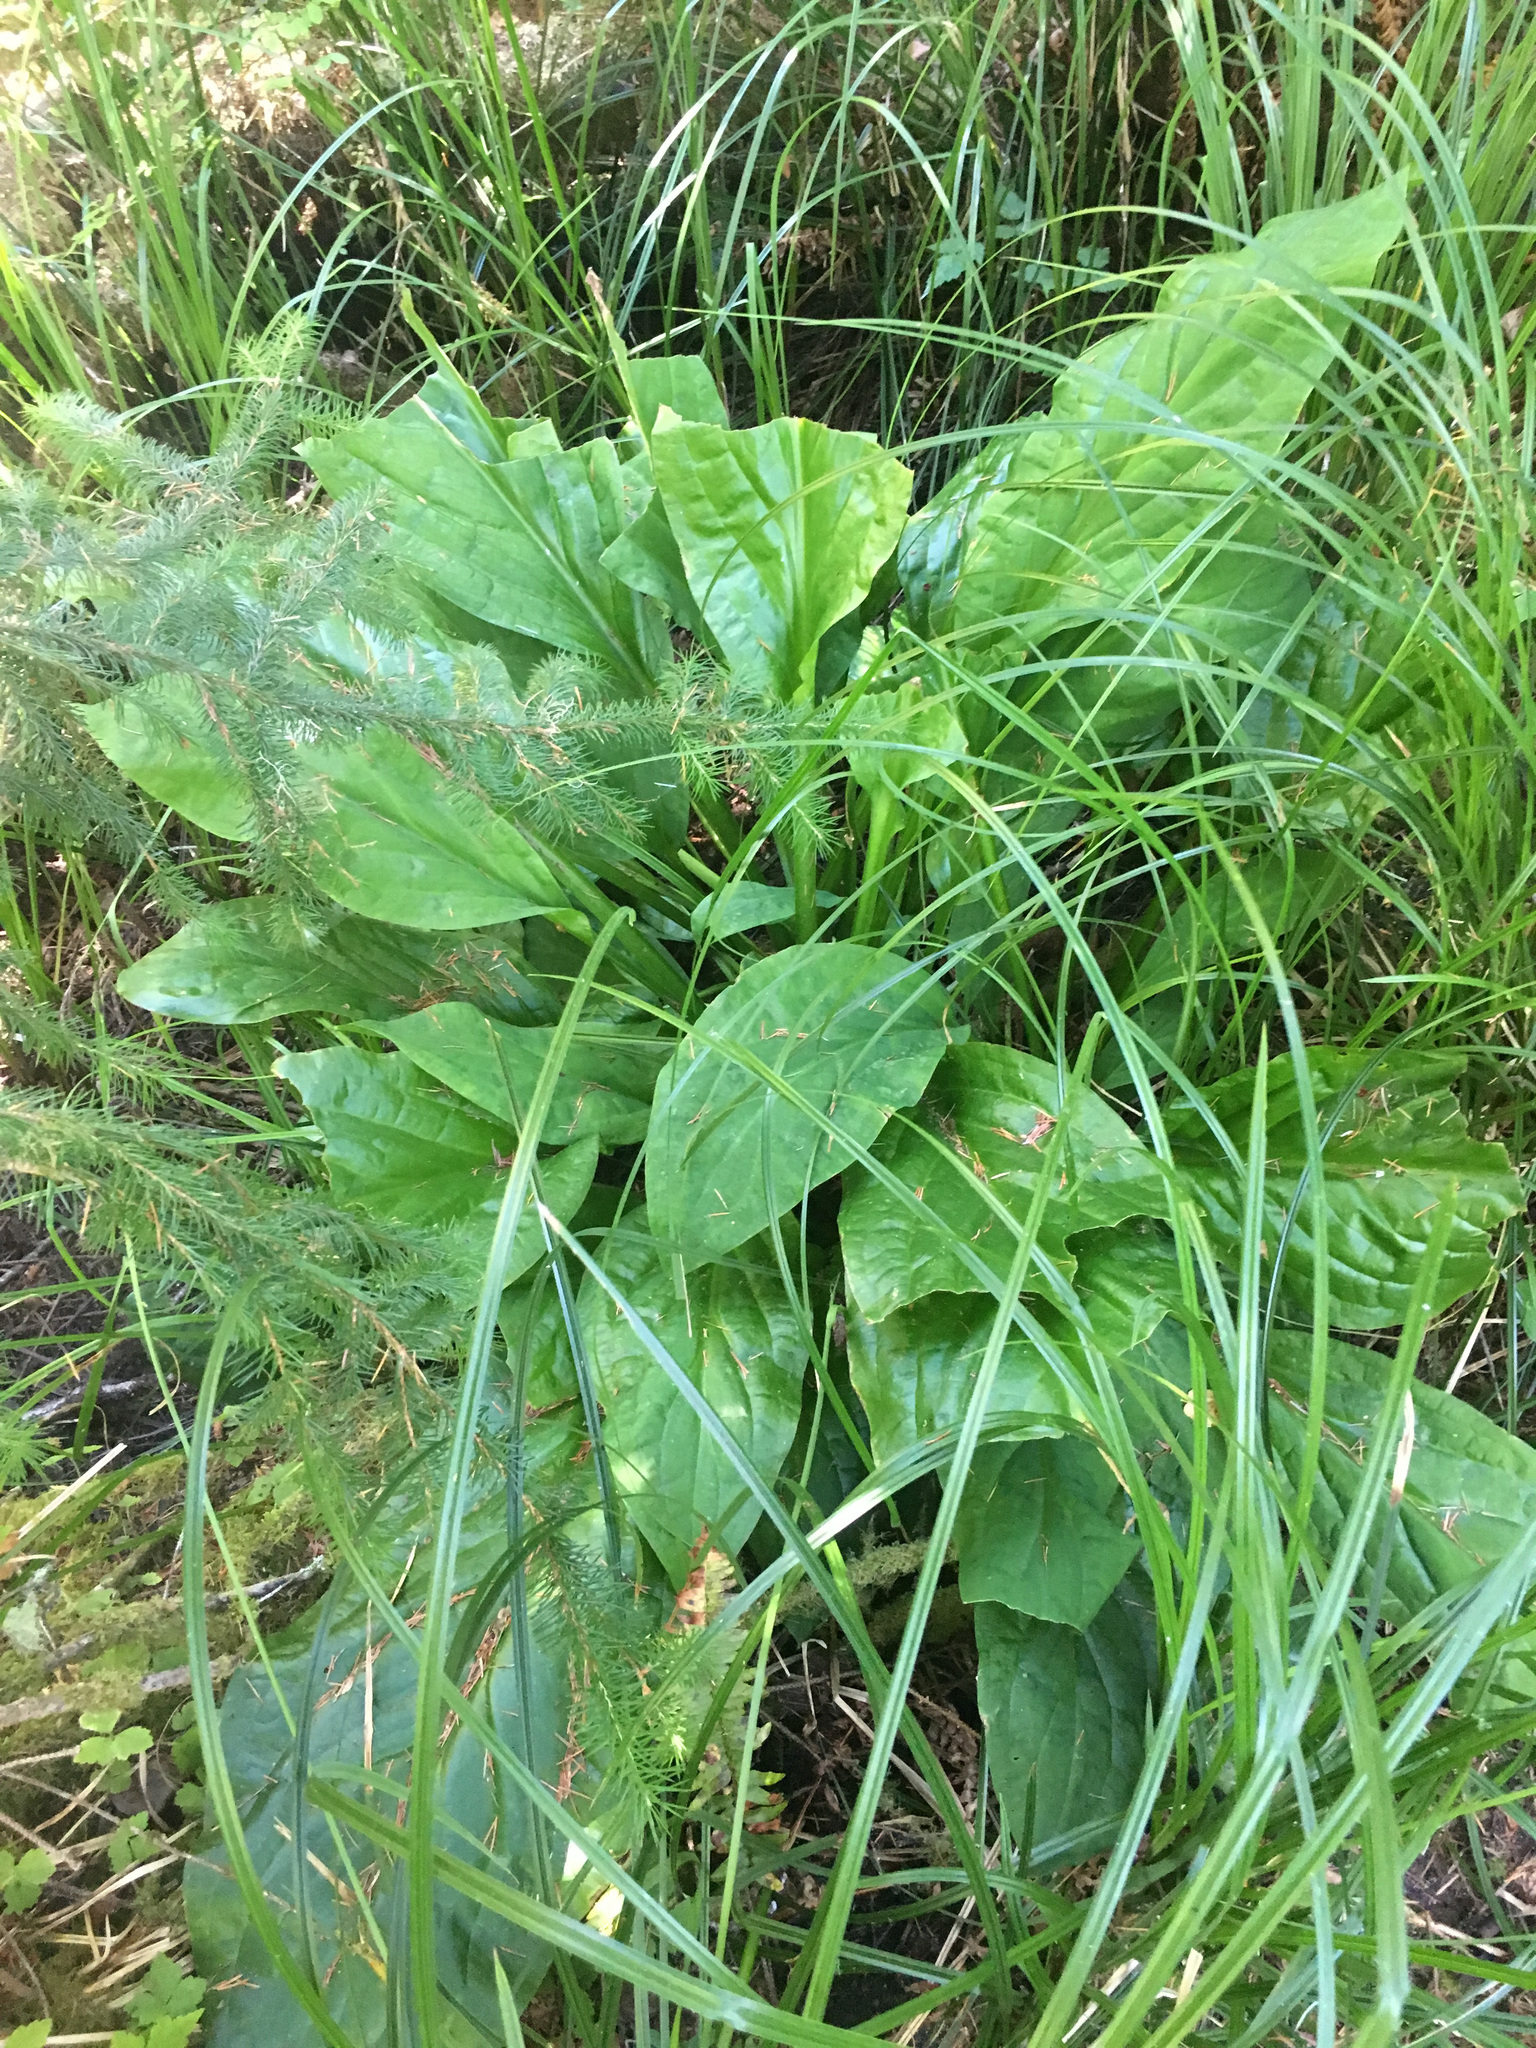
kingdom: Plantae
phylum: Tracheophyta
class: Liliopsida
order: Alismatales
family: Araceae
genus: Lysichiton
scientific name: Lysichiton americanus
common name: American skunk cabbage
